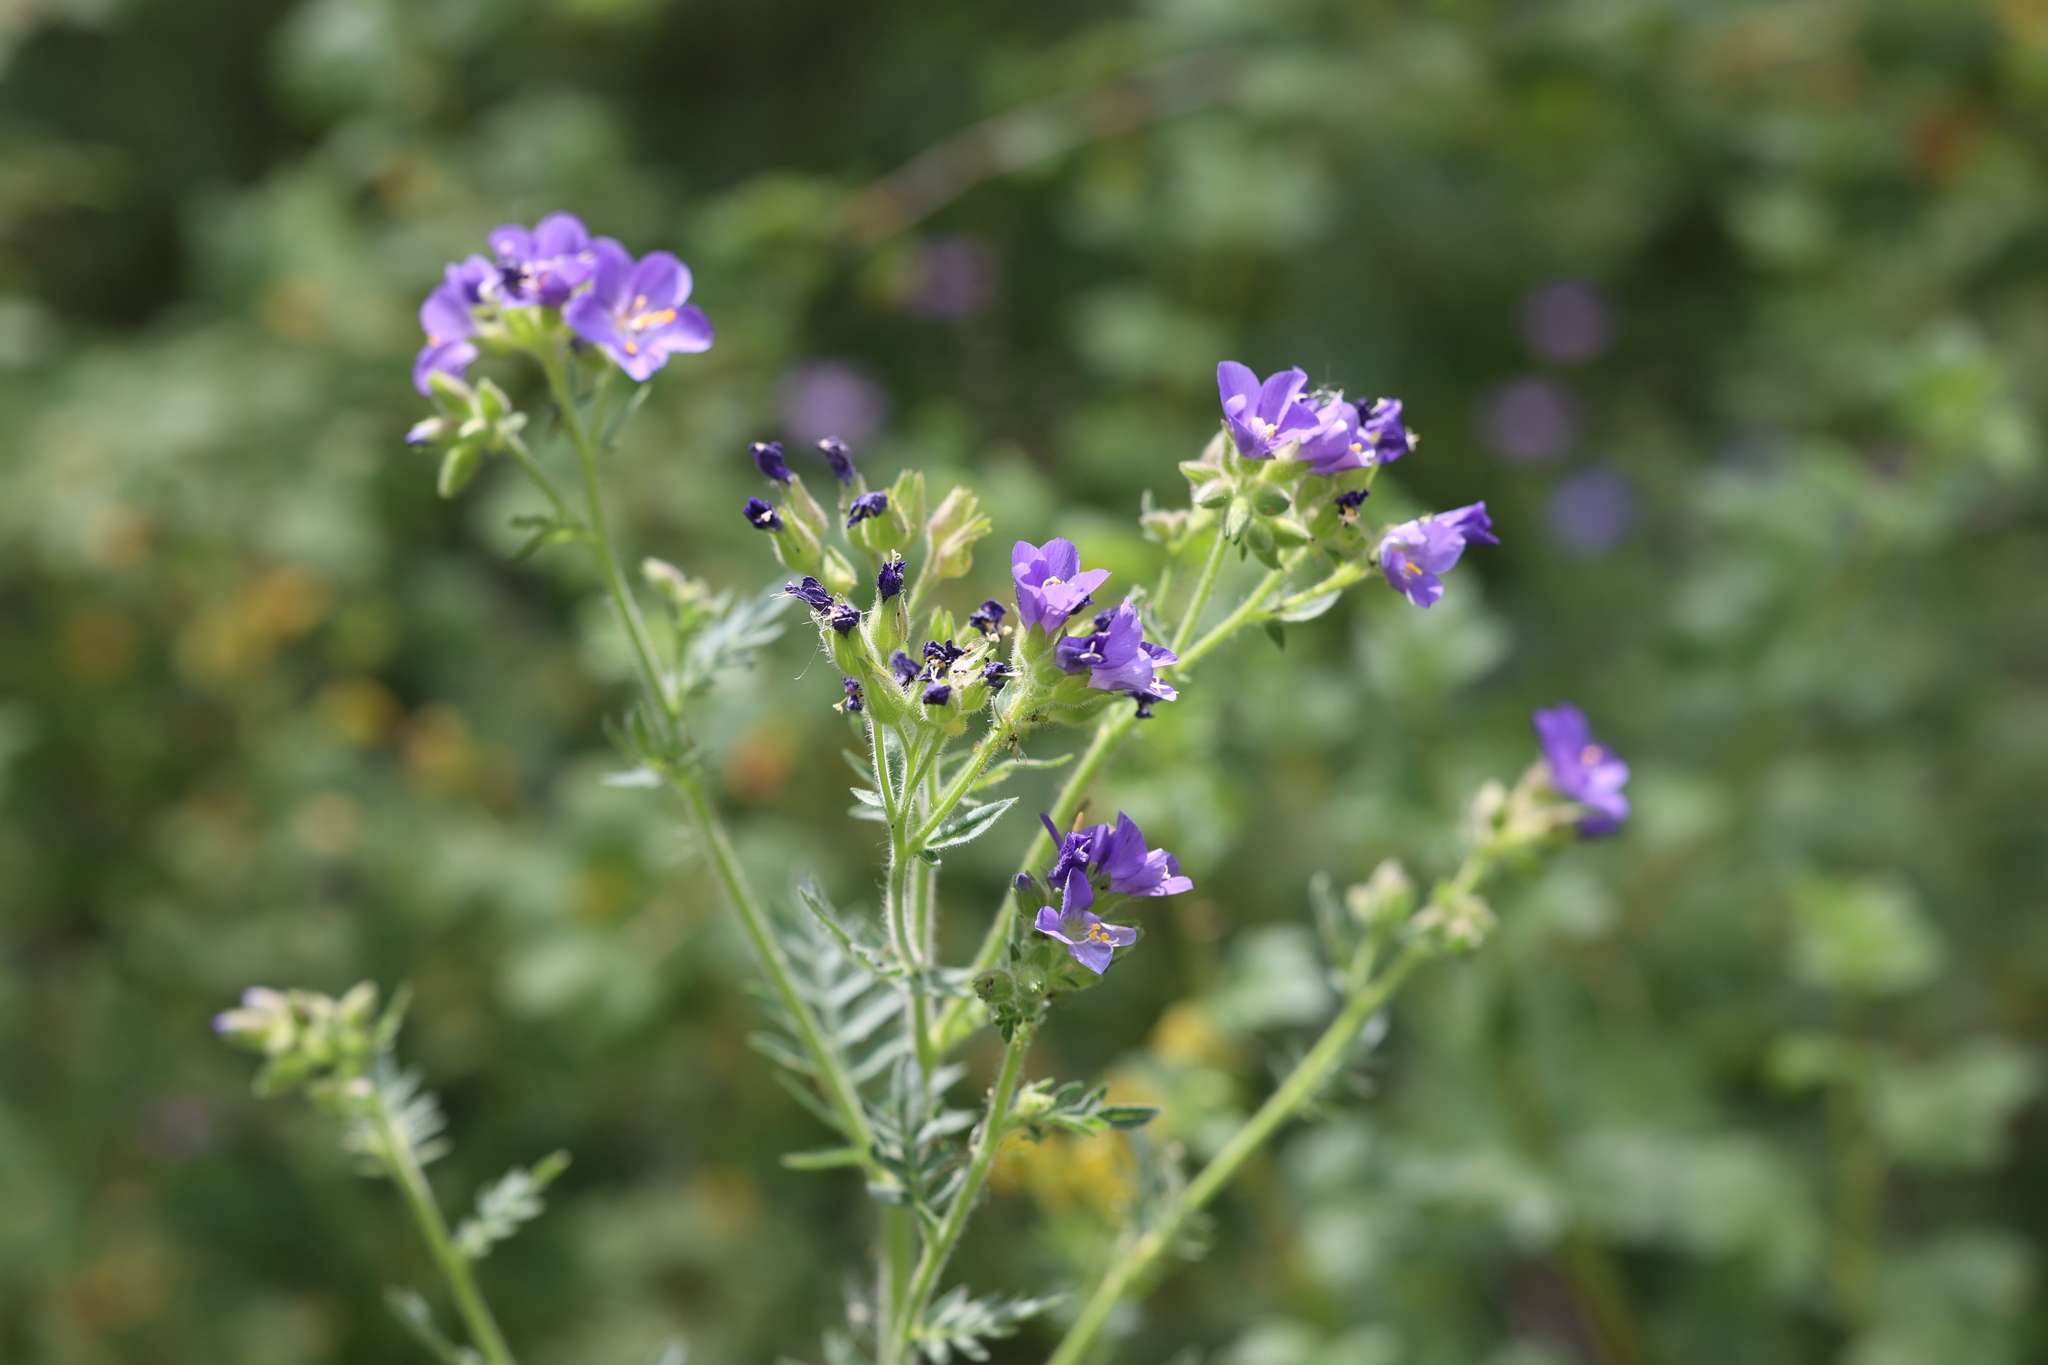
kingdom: Plantae
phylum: Tracheophyta
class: Magnoliopsida
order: Ericales
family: Polemoniaceae
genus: Polemonium
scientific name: Polemonium foliosissimum
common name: Leafy jacob's-ladder
